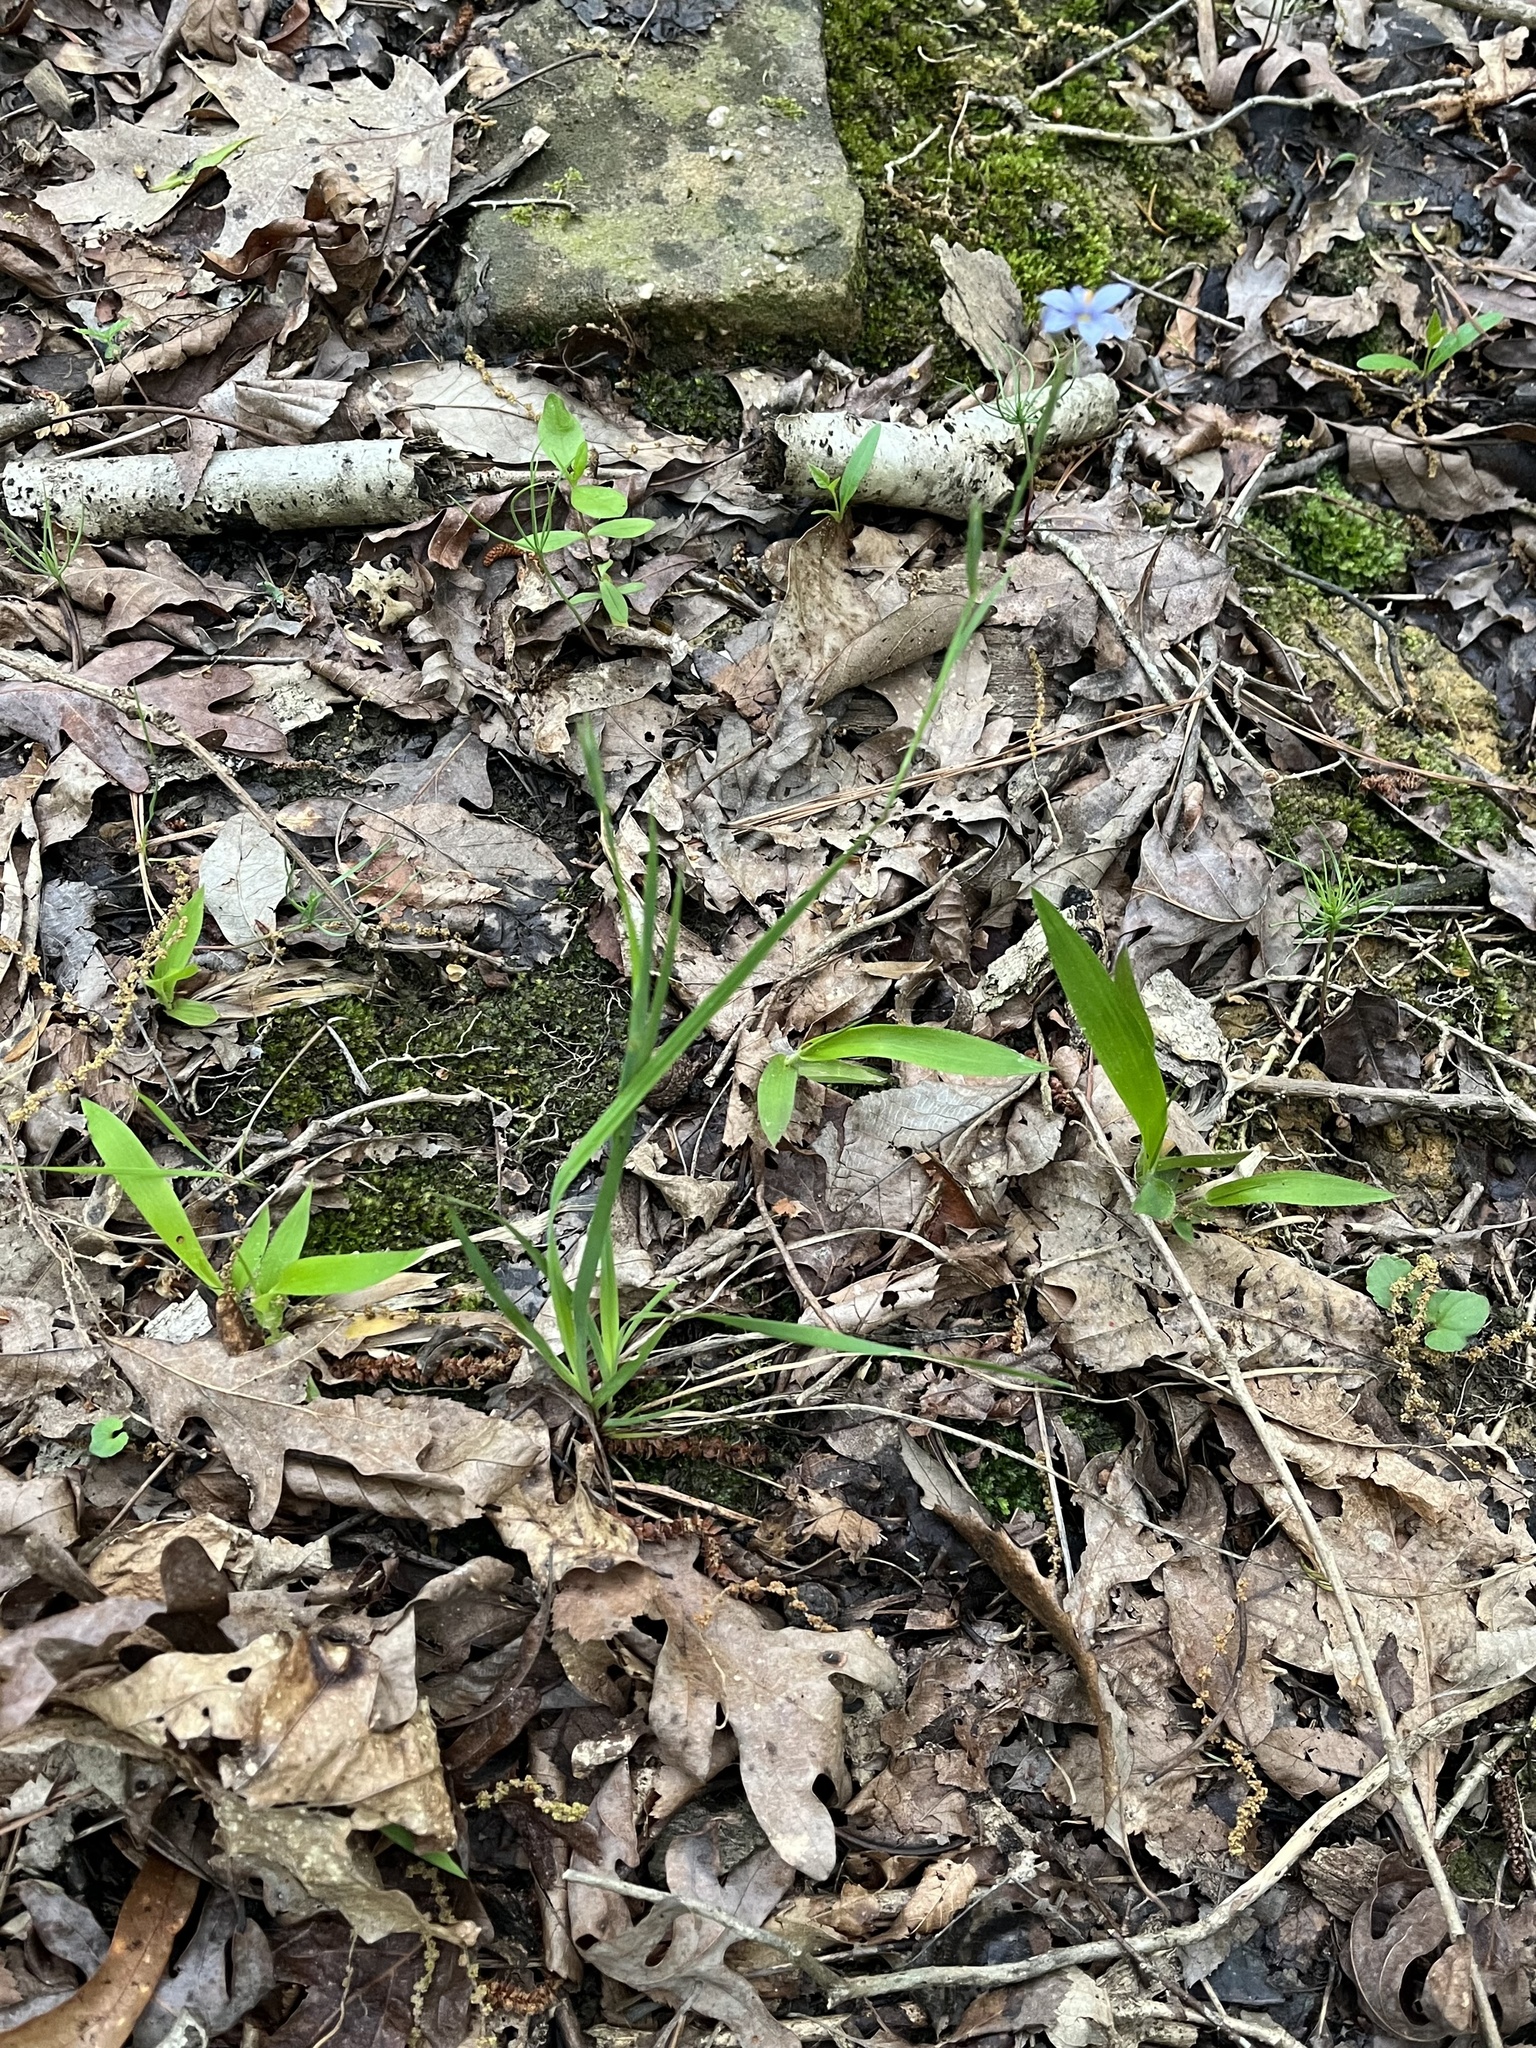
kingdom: Plantae
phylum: Tracheophyta
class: Liliopsida
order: Asparagales
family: Iridaceae
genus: Sisyrinchium
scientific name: Sisyrinchium nashii
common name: Nash's blue-eyed-grass
